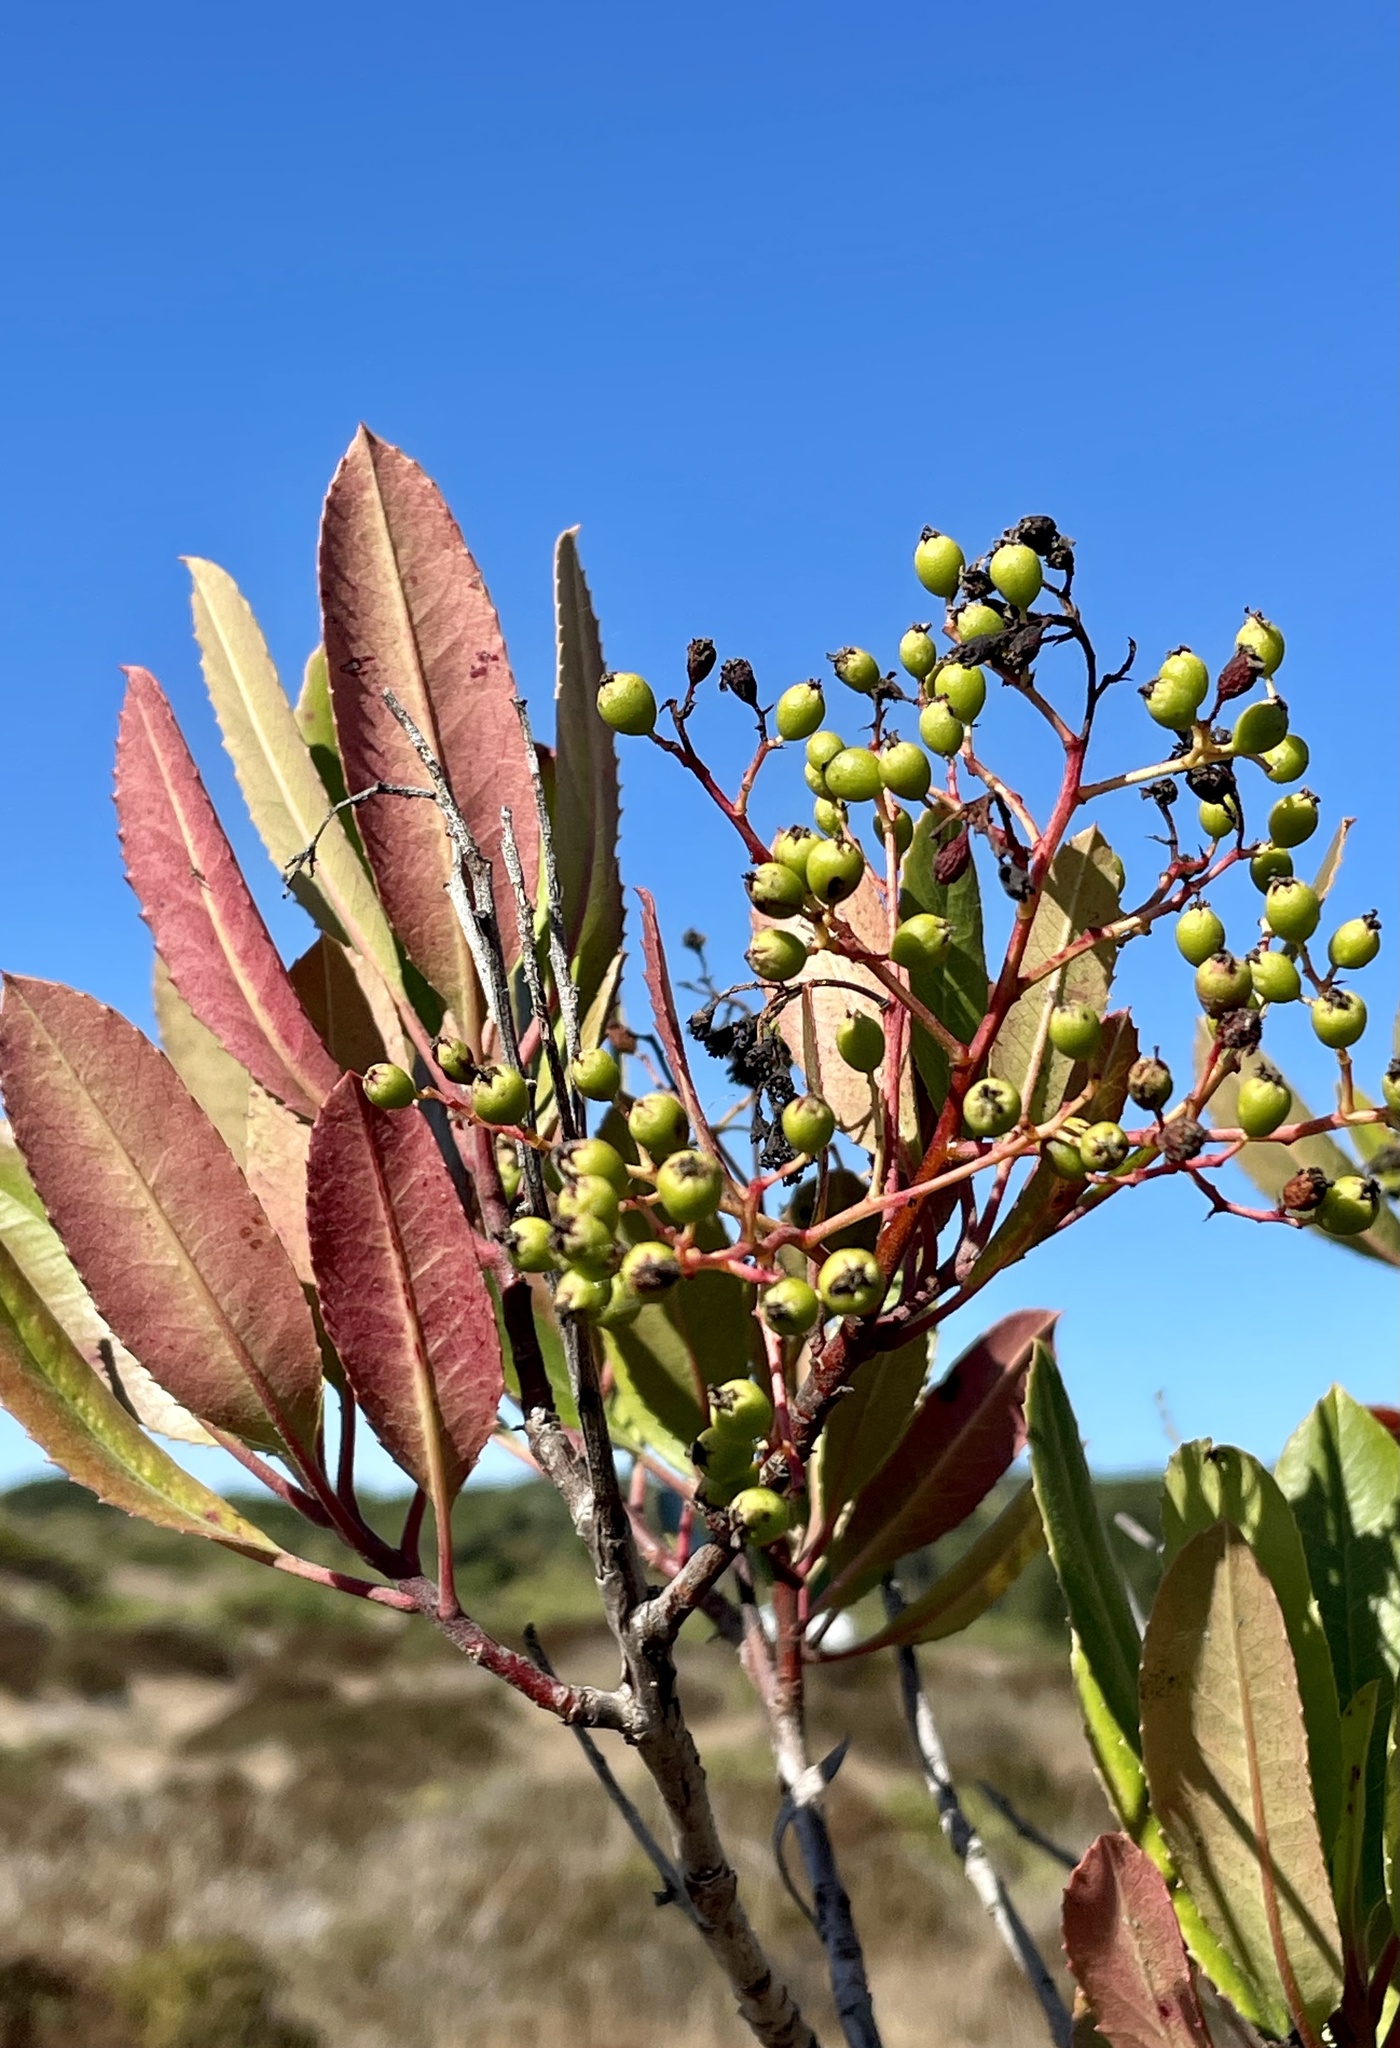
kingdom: Plantae
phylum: Tracheophyta
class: Magnoliopsida
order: Rosales
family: Rosaceae
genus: Heteromeles
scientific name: Heteromeles arbutifolia
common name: California-holly
